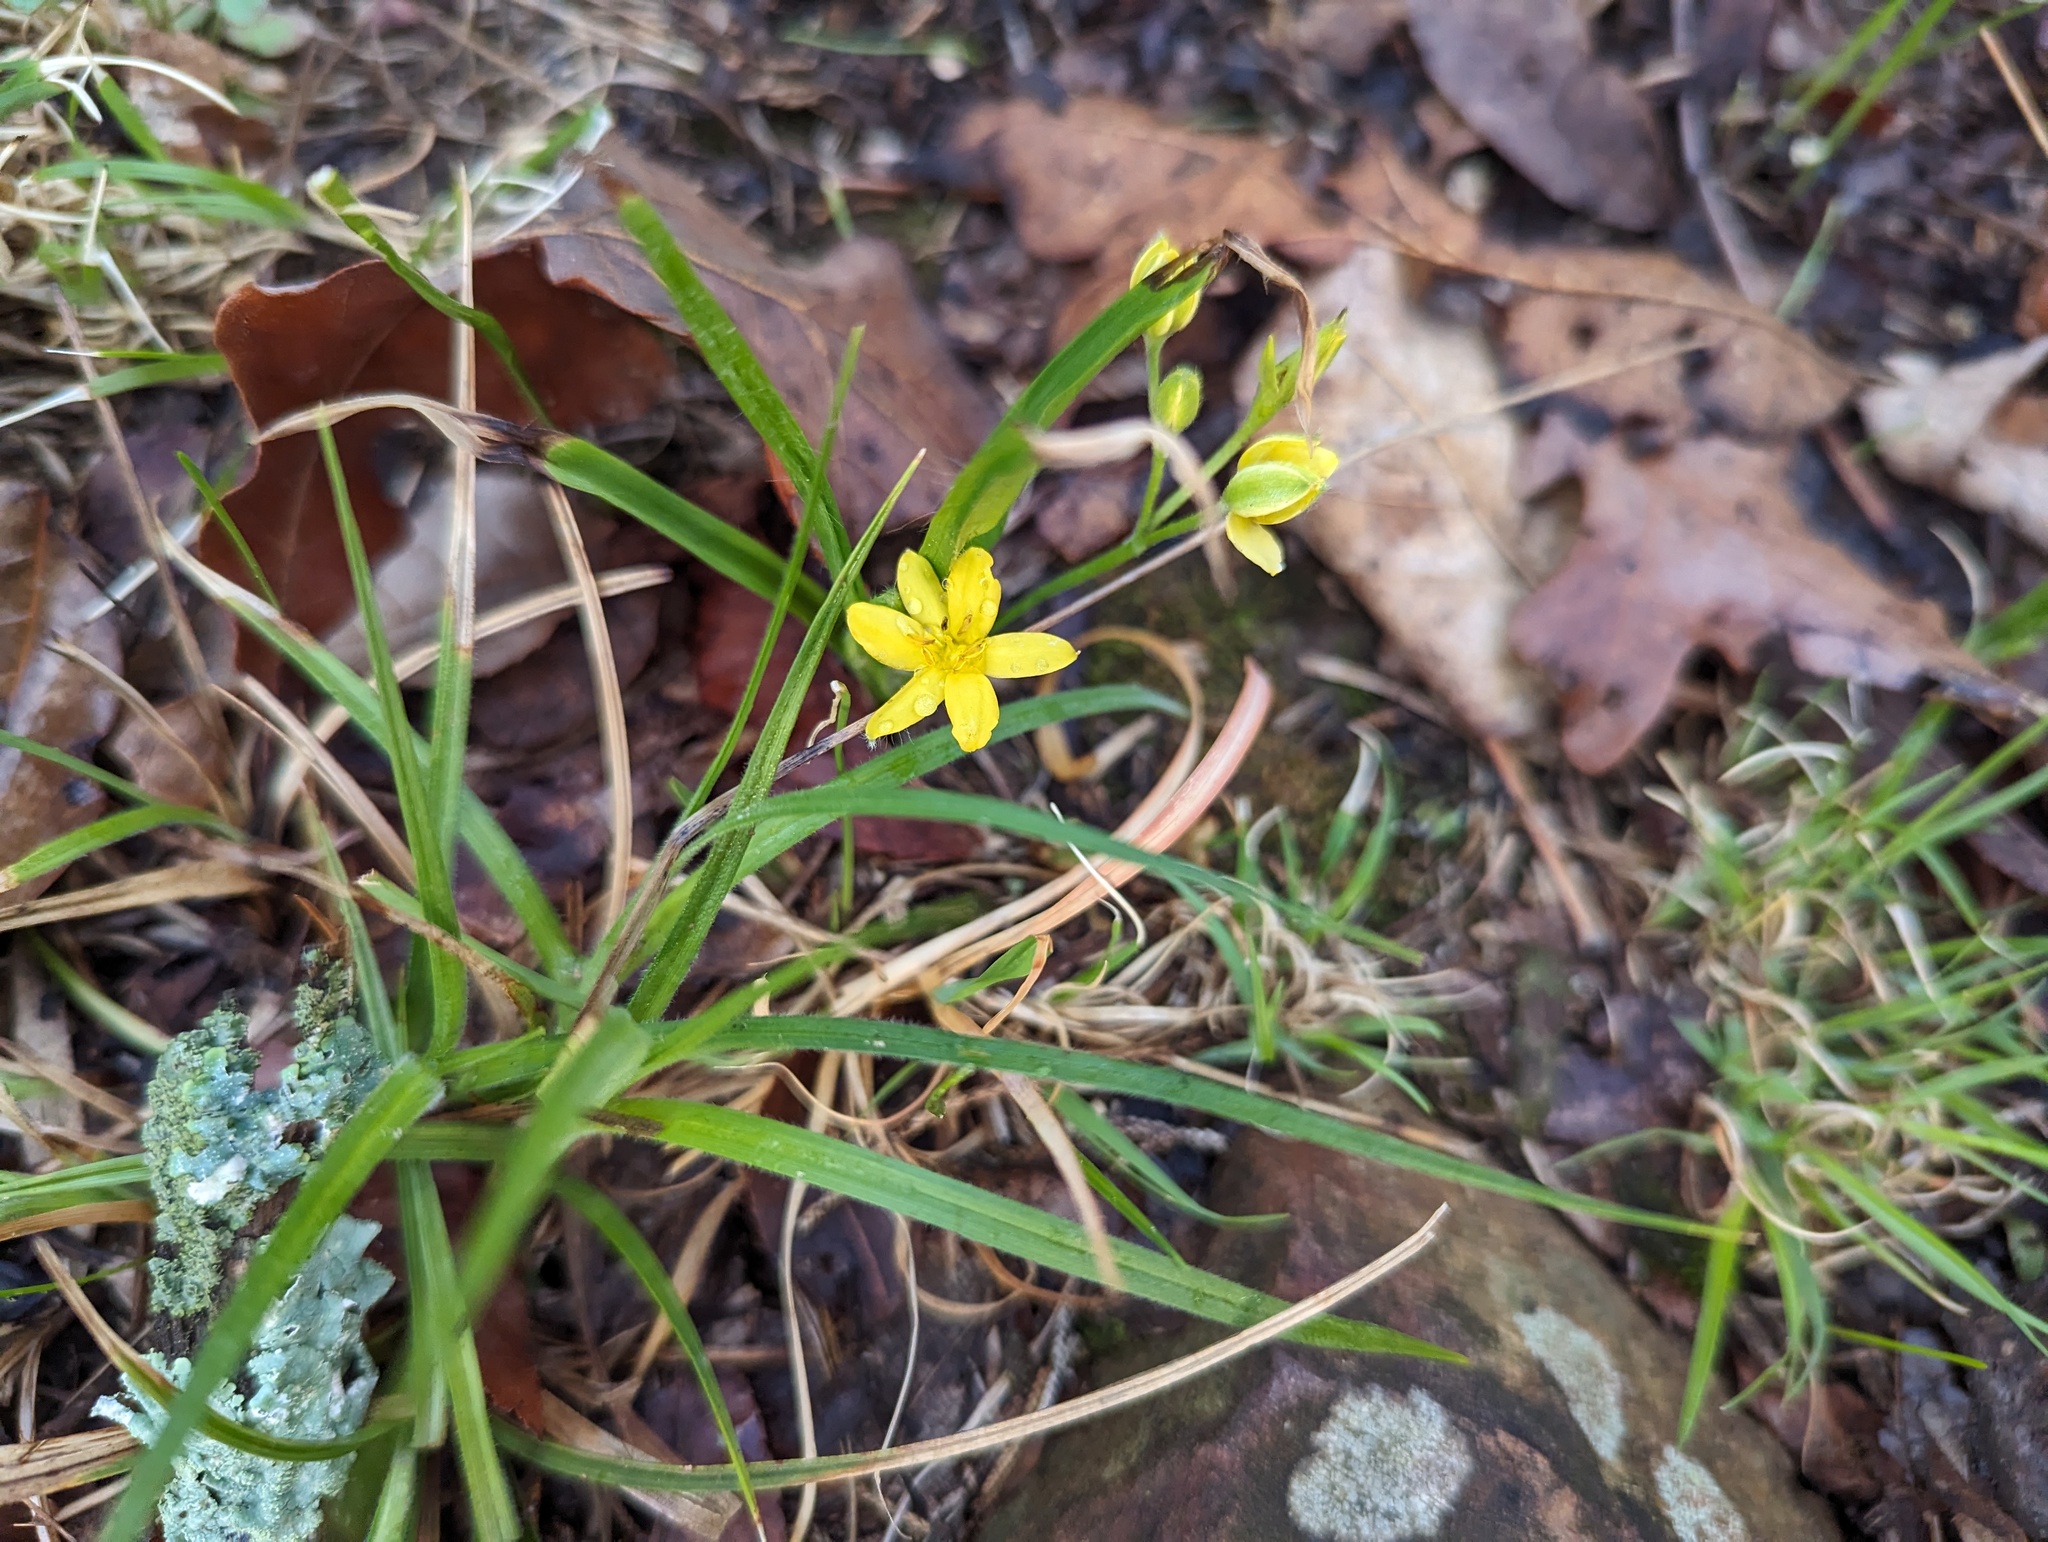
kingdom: Plantae
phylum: Tracheophyta
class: Liliopsida
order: Asparagales
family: Hypoxidaceae
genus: Hypoxis
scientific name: Hypoxis hirsuta
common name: Common goldstar
